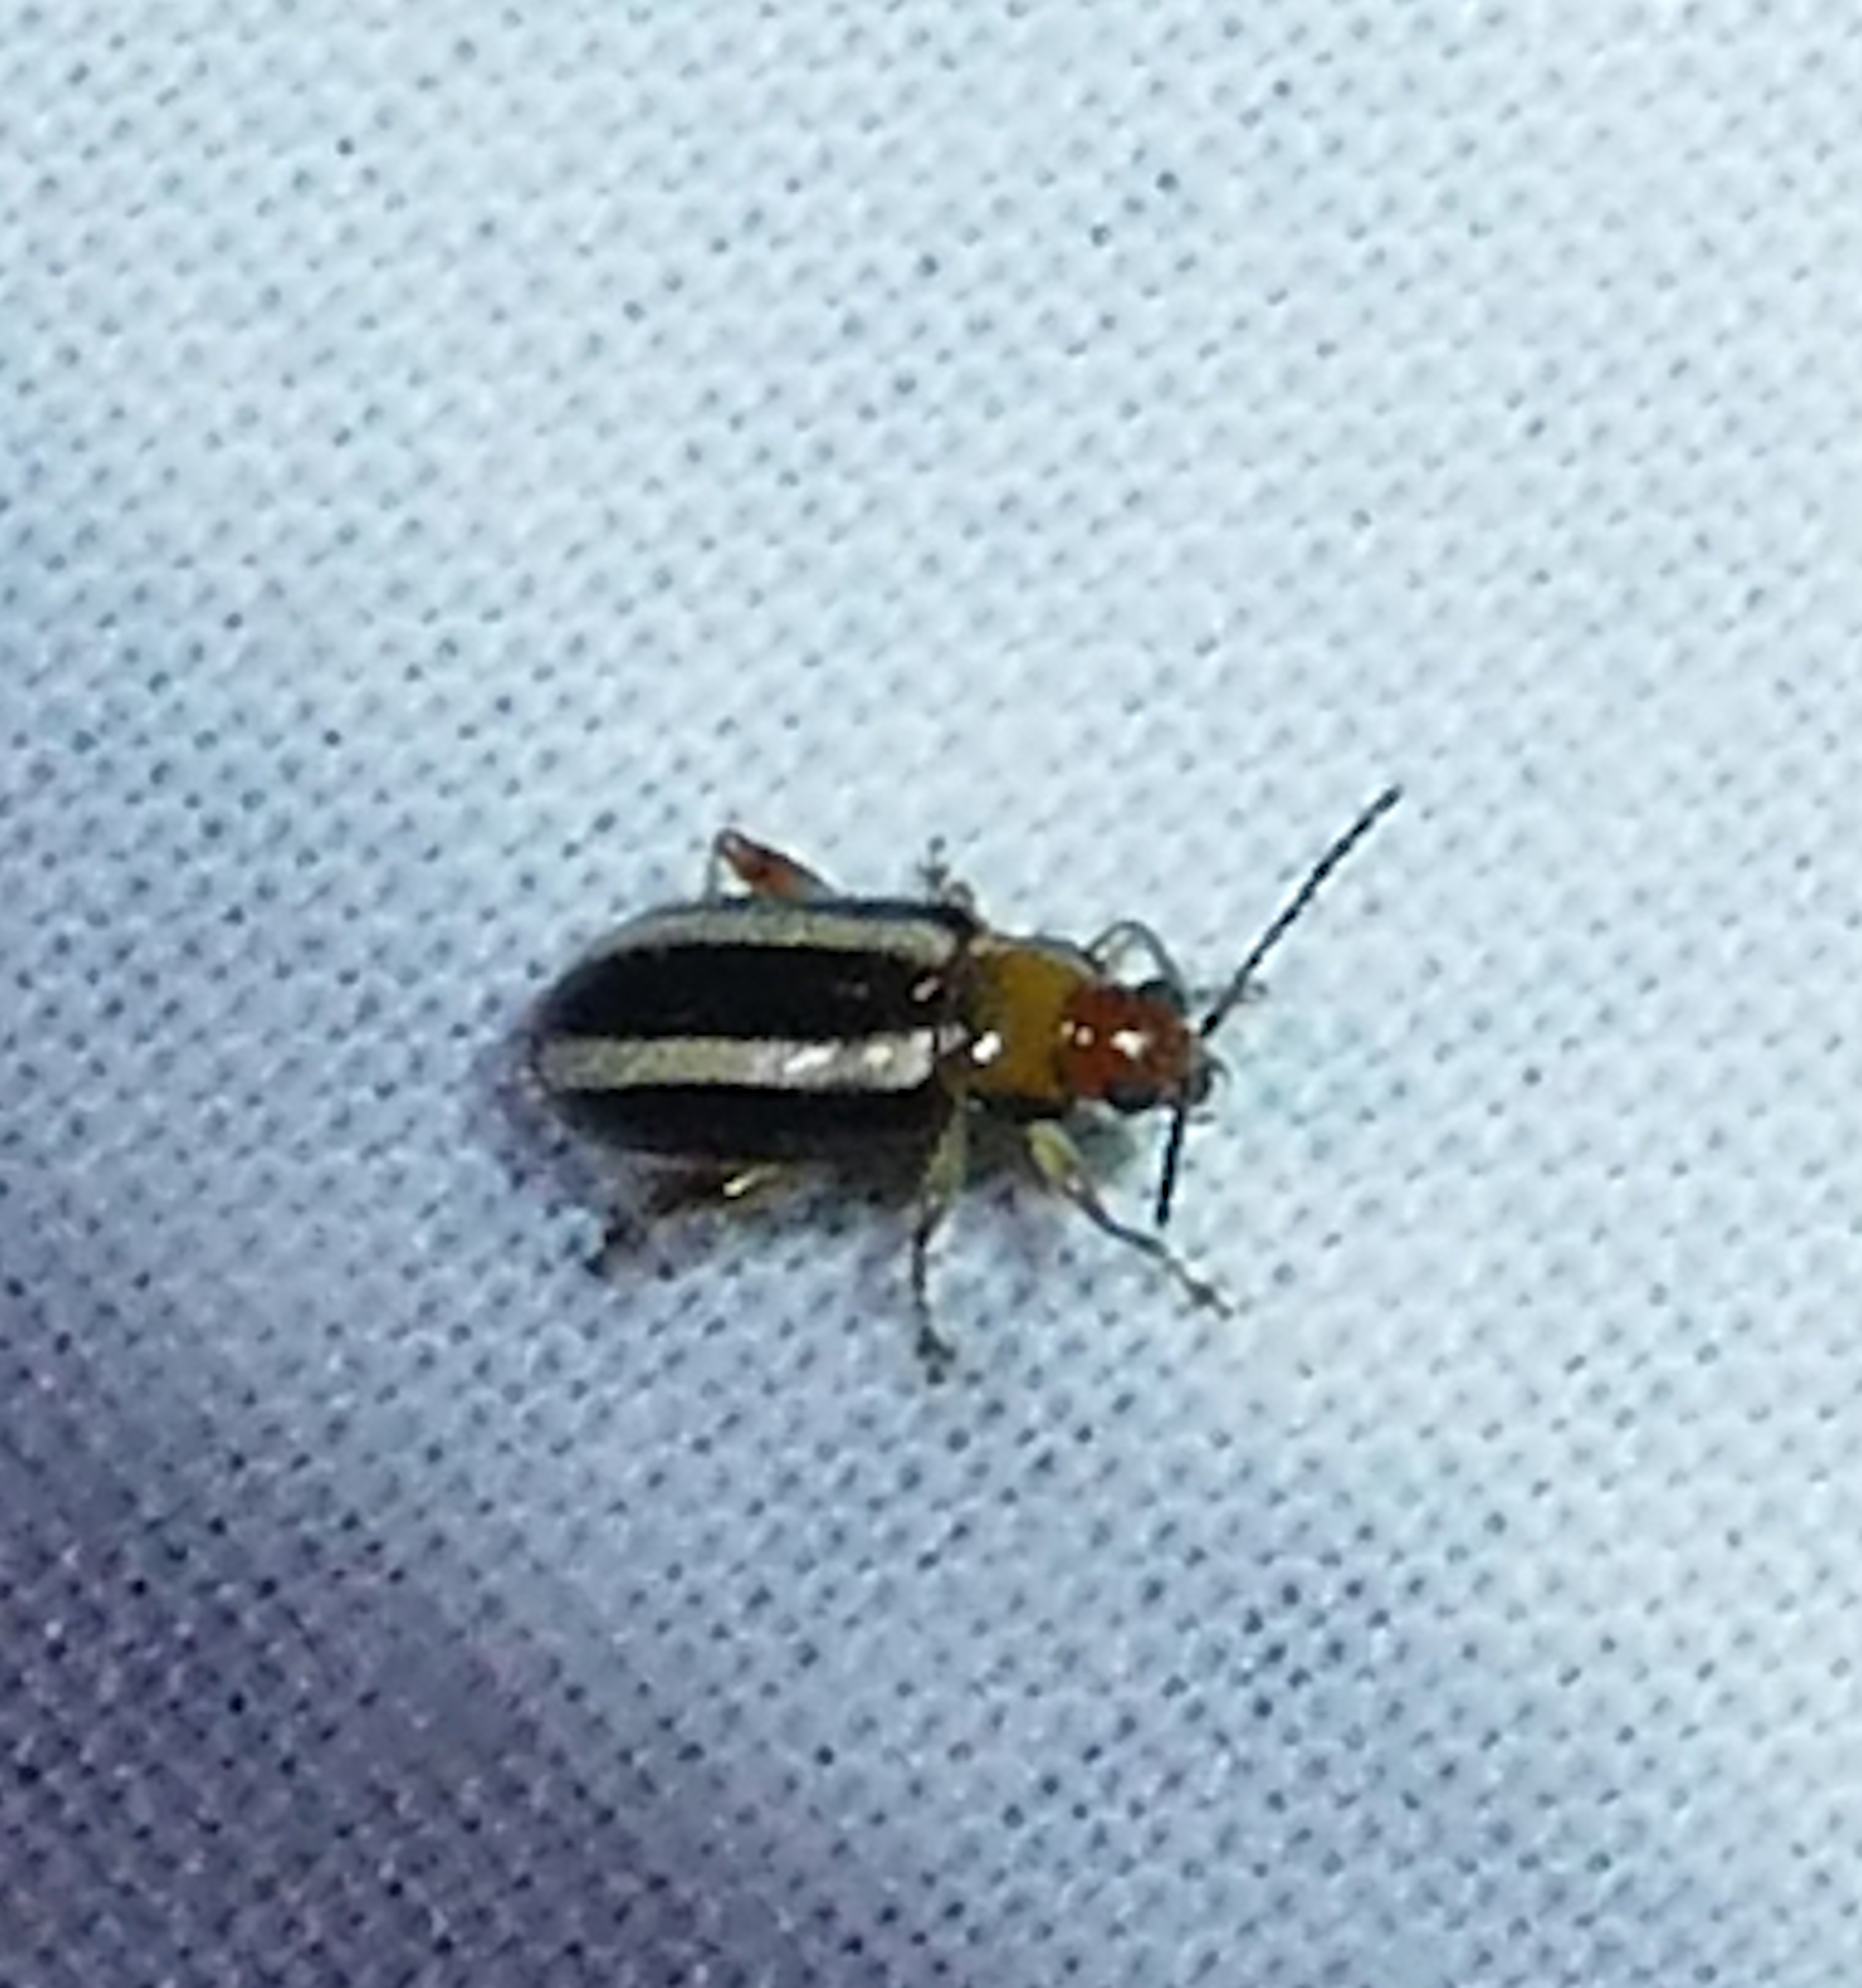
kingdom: Animalia
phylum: Arthropoda
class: Insecta
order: Coleoptera
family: Chrysomelidae
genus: Systena
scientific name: Systena blanda
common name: Palestriped flea beetle
